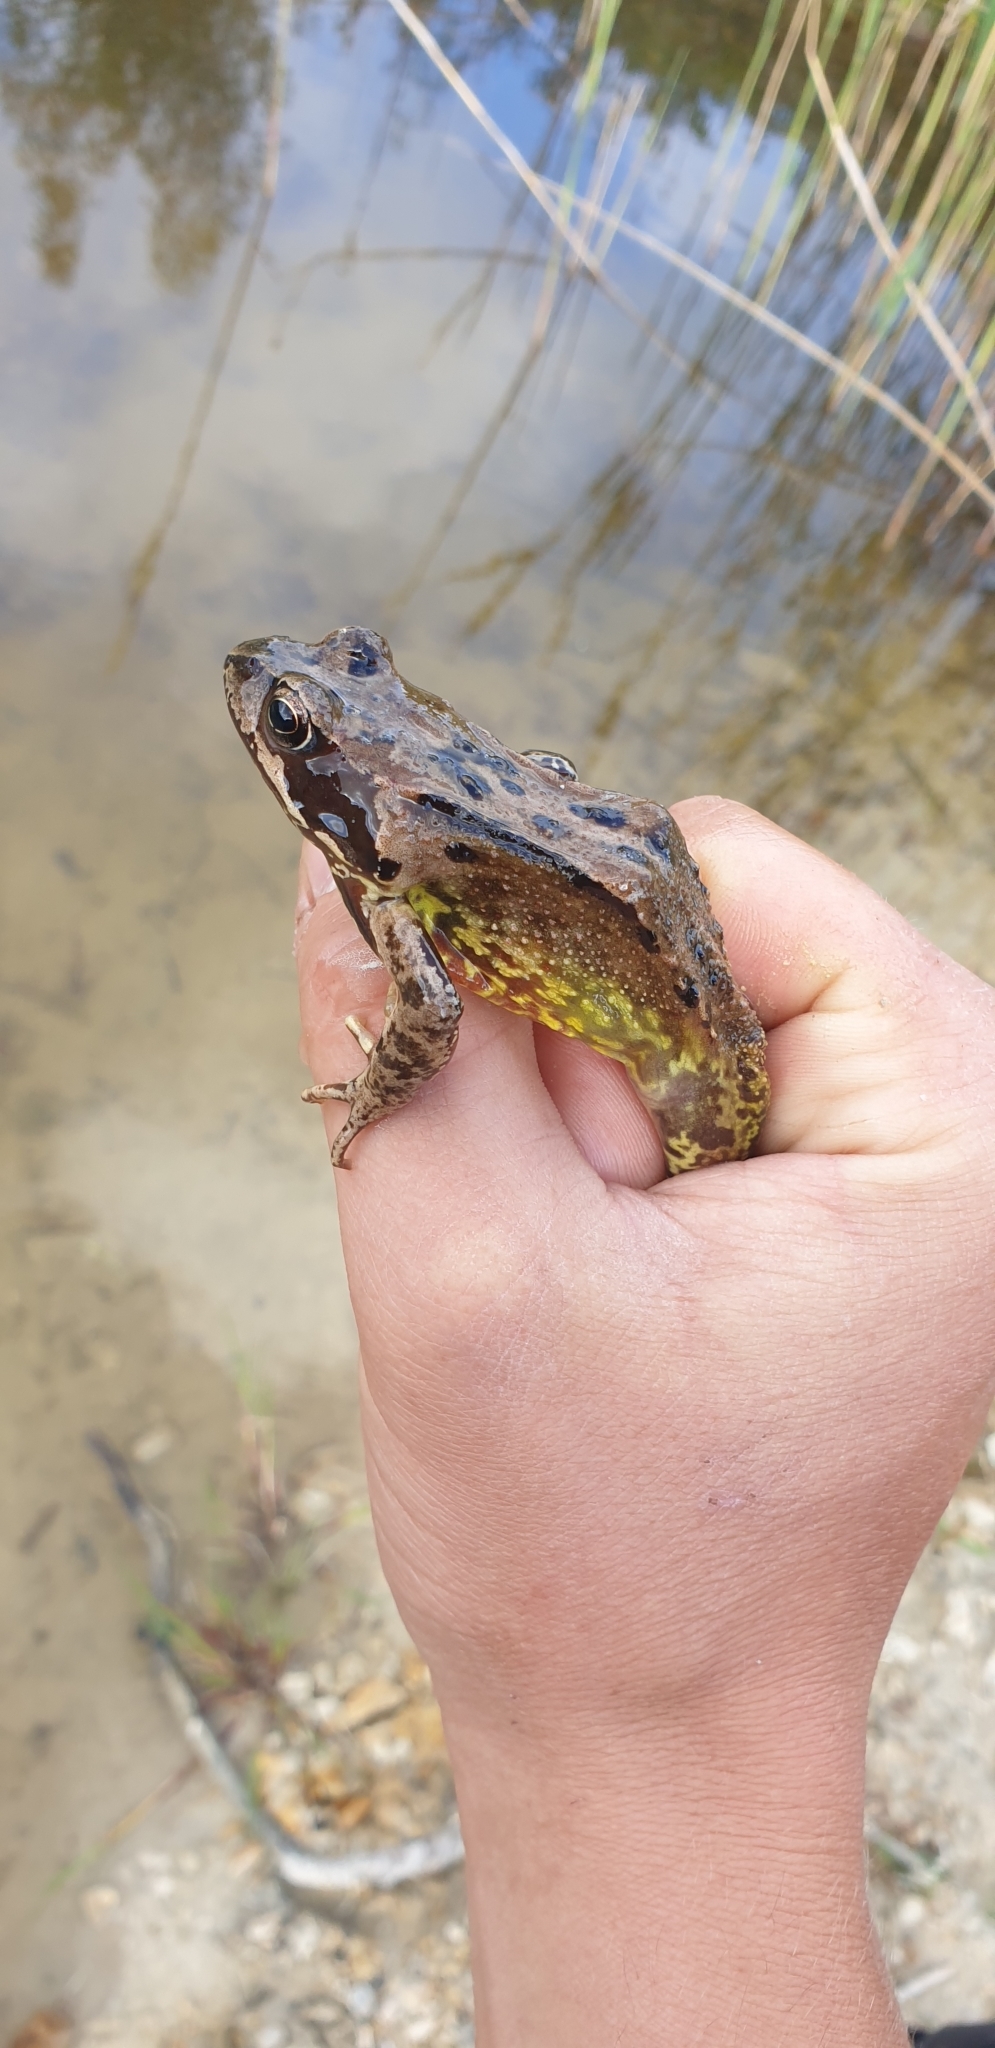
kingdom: Animalia
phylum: Chordata
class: Amphibia
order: Anura
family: Ranidae
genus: Rana
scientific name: Rana temporaria
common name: Common frog
